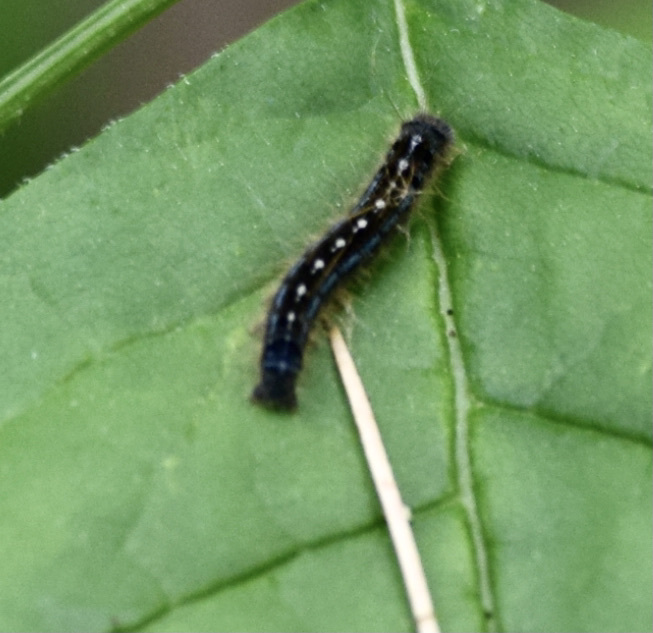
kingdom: Animalia
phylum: Arthropoda
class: Insecta
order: Lepidoptera
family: Lasiocampidae
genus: Malacosoma
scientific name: Malacosoma disstria
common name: Forest tent caterpillar
